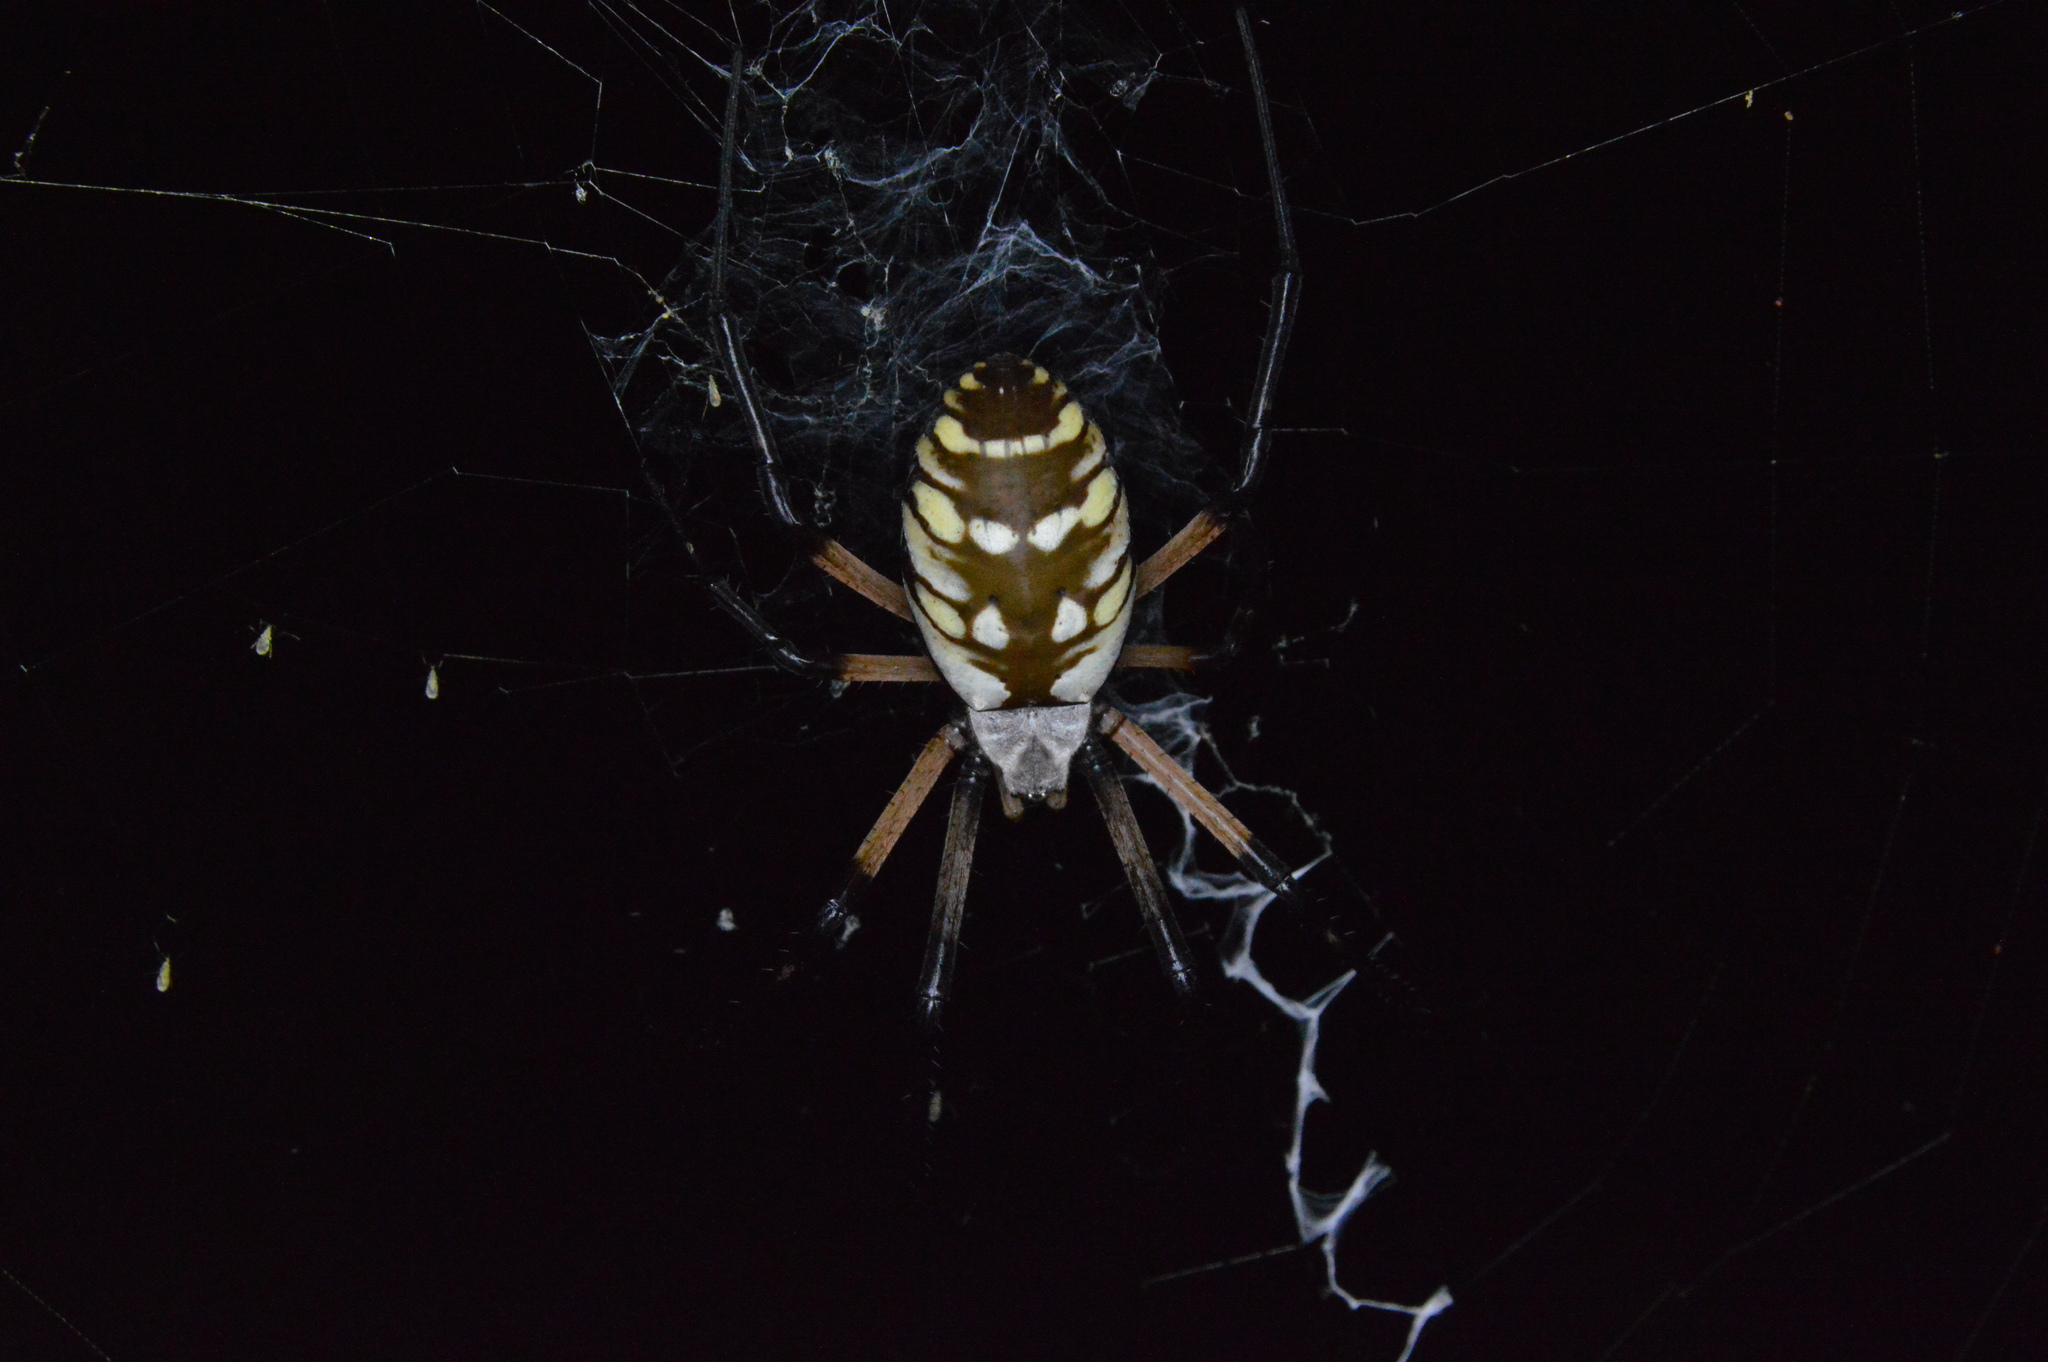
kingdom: Animalia
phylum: Arthropoda
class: Arachnida
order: Araneae
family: Araneidae
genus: Argiope
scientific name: Argiope aurantia
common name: Orb weavers
